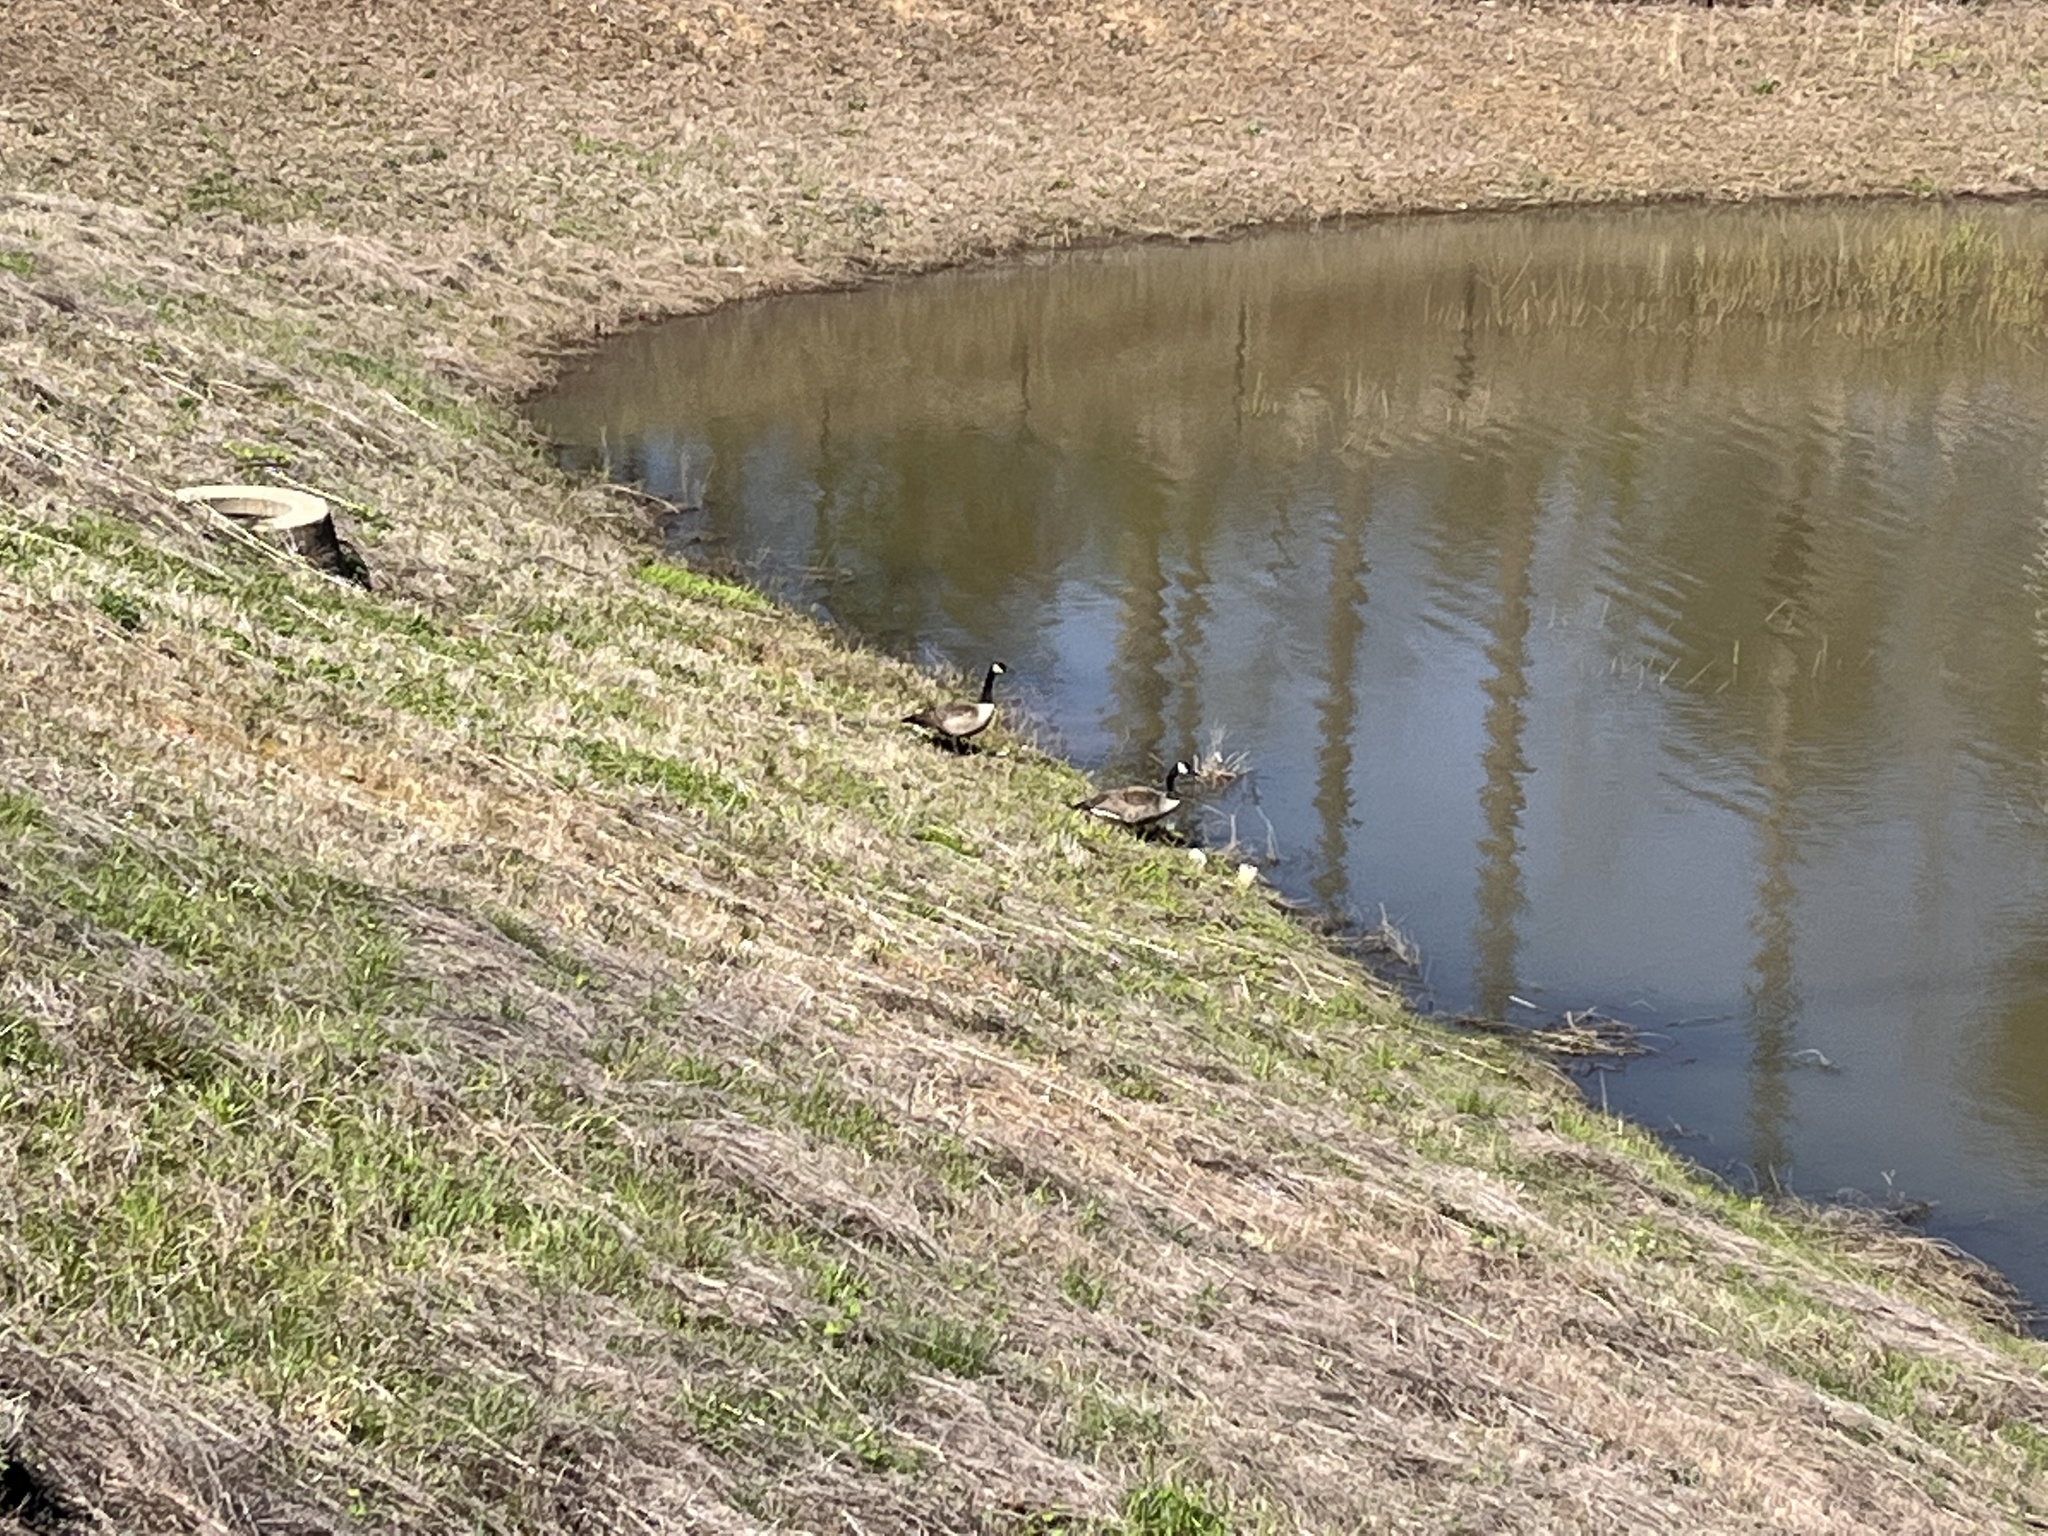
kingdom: Animalia
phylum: Chordata
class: Aves
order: Anseriformes
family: Anatidae
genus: Branta
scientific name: Branta canadensis
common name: Canada goose
